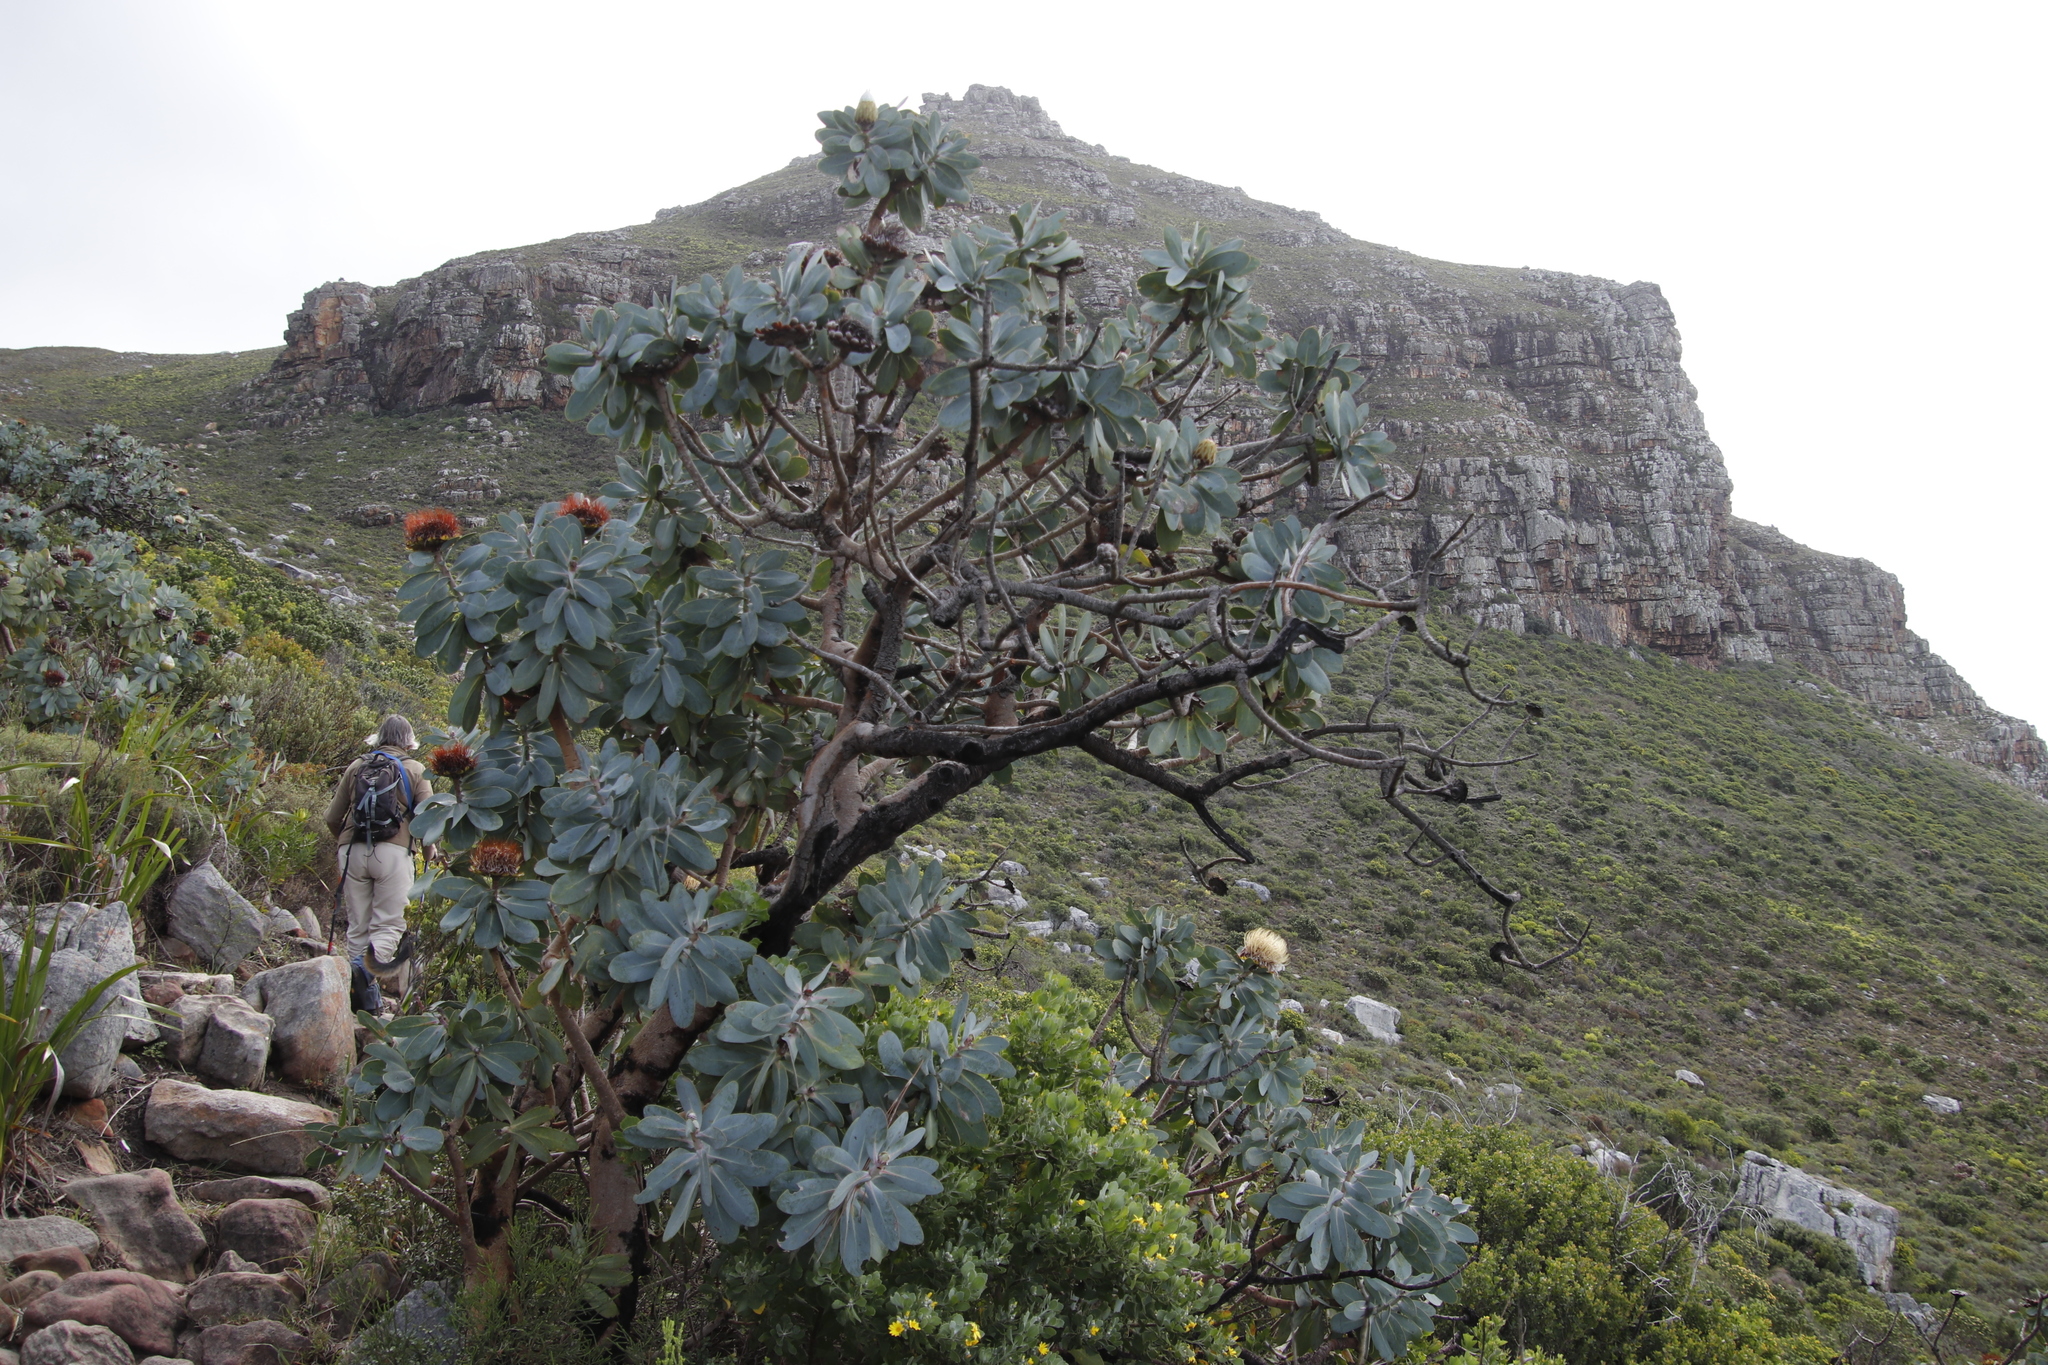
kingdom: Plantae
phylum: Tracheophyta
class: Magnoliopsida
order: Proteales
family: Proteaceae
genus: Protea
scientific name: Protea nitida
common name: Tree protea
